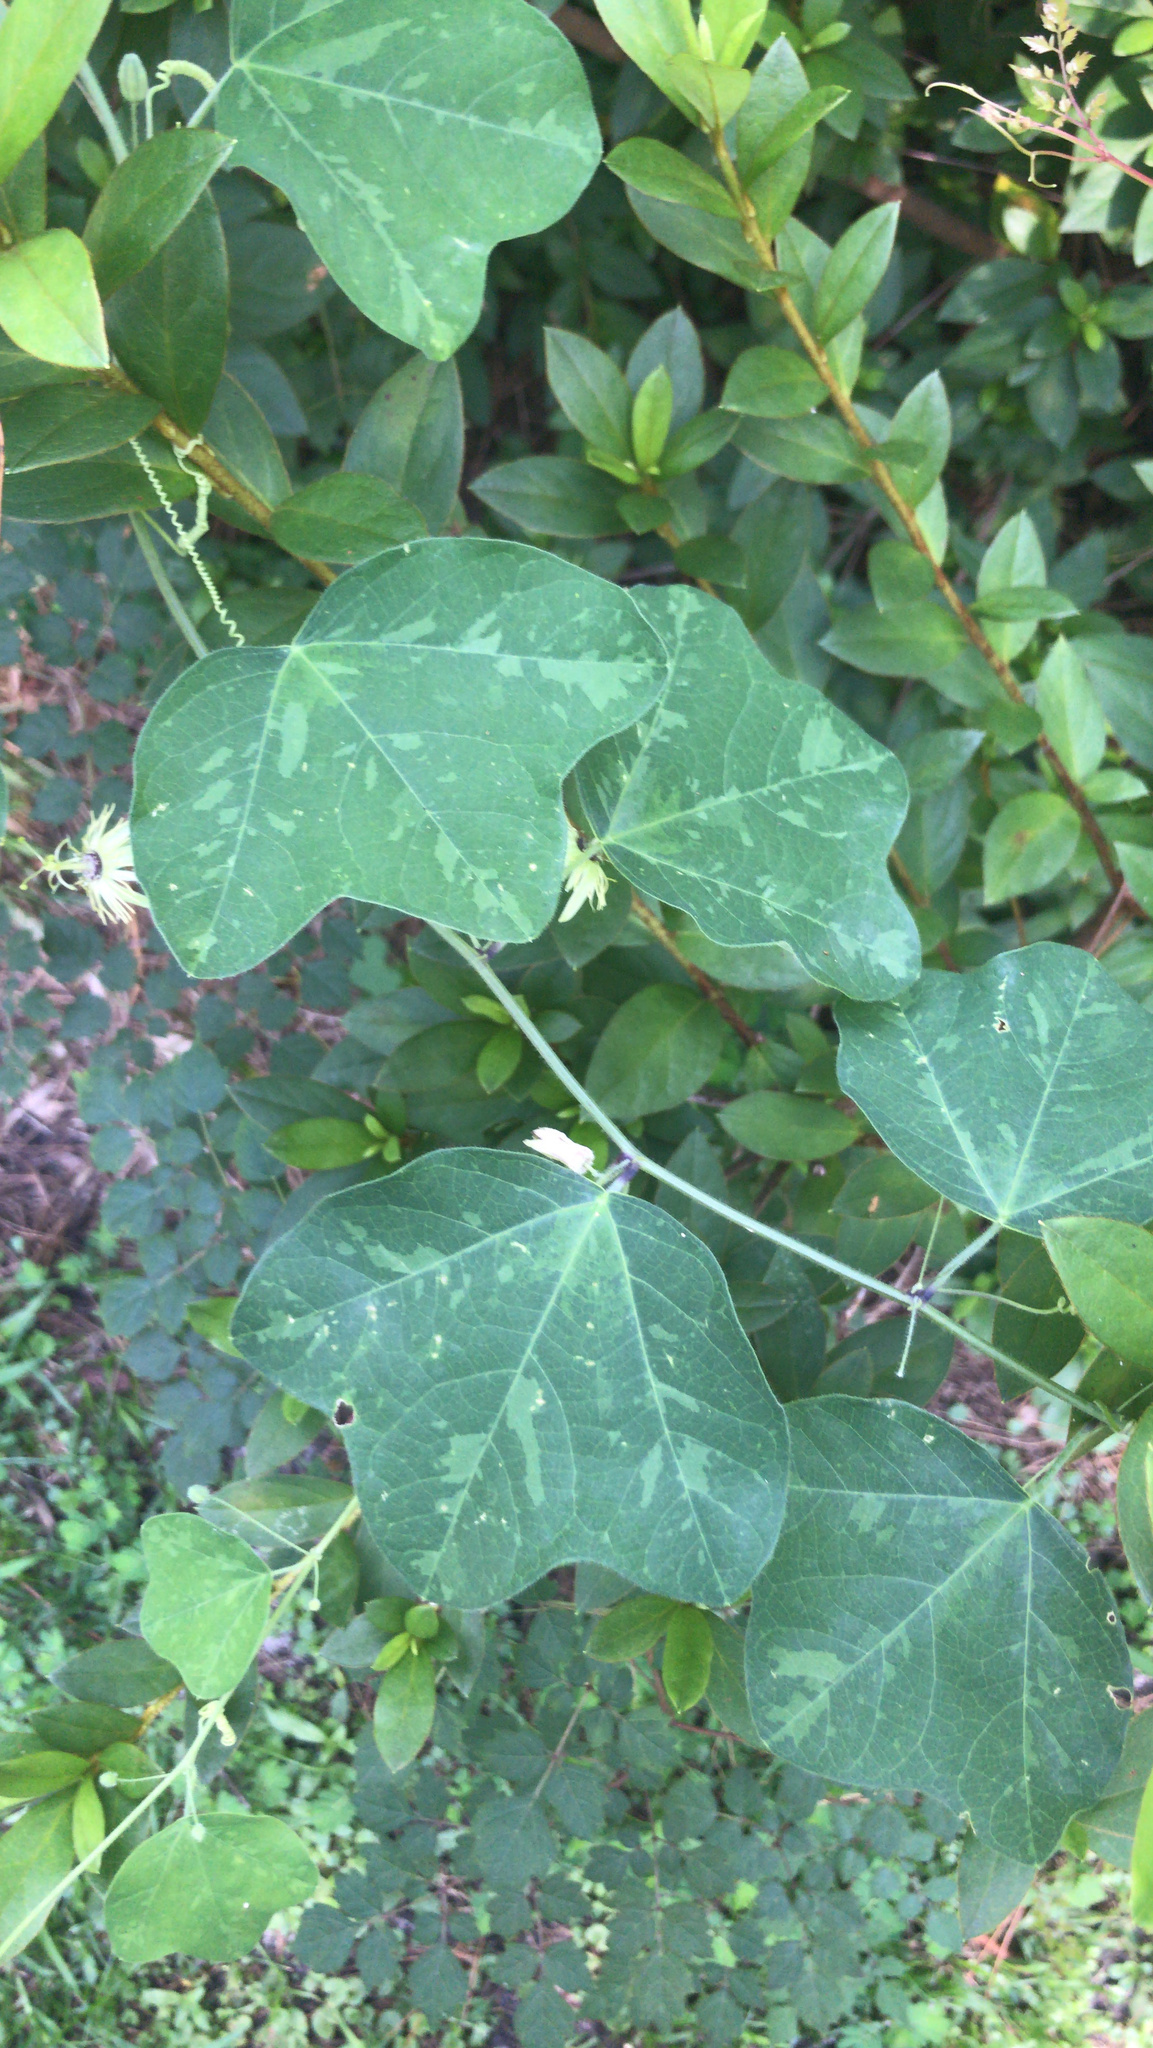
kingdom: Plantae
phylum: Tracheophyta
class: Magnoliopsida
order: Malpighiales
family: Passifloraceae
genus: Passiflora
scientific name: Passiflora lutea
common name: Yellow passionflower
